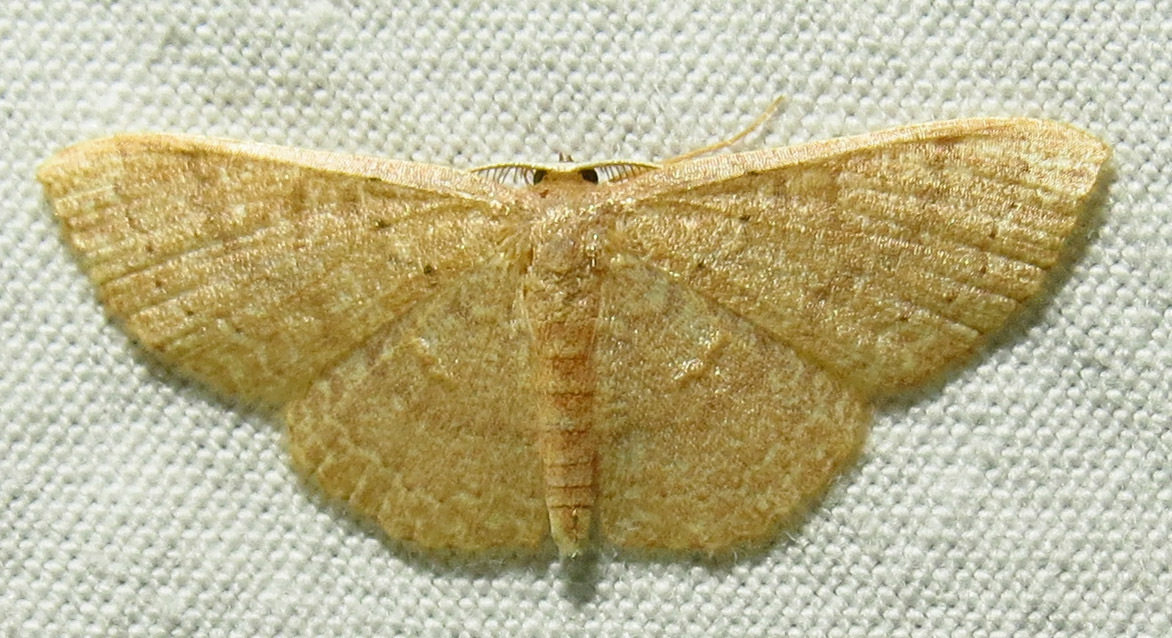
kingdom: Animalia
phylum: Arthropoda
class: Insecta
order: Lepidoptera
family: Geometridae
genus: Pleuroprucha
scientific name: Pleuroprucha insulsaria
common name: Common tan wave
